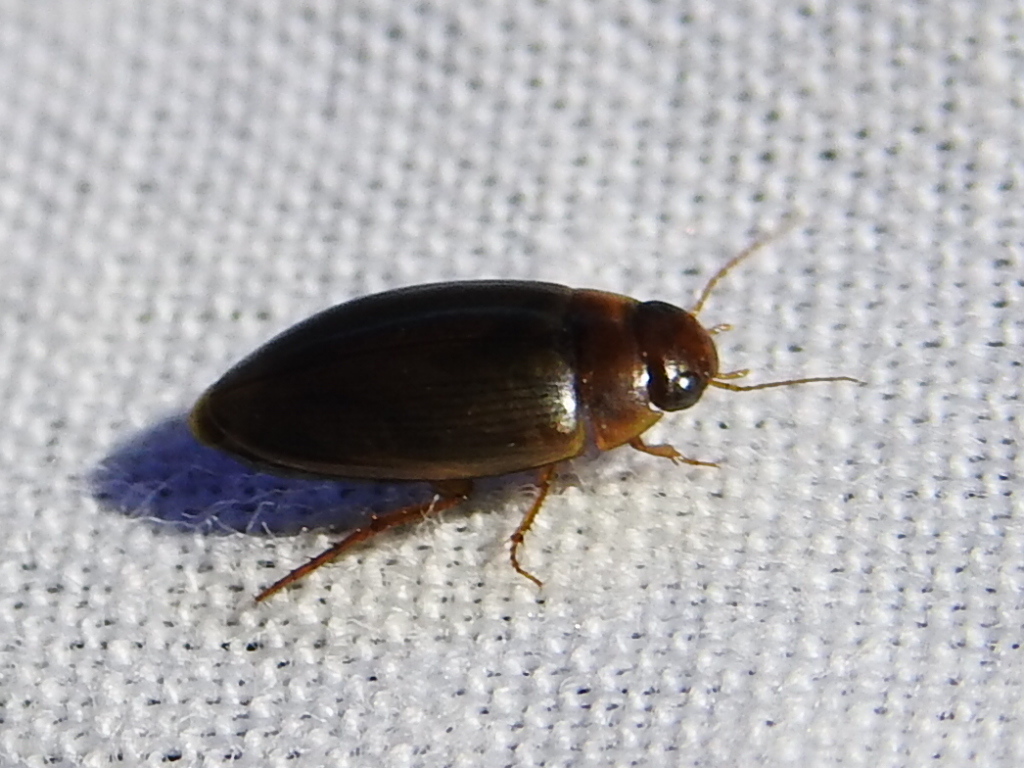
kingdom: Animalia
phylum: Arthropoda
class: Insecta
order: Coleoptera
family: Dytiscidae
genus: Copelatus
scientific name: Copelatus chevrolati
